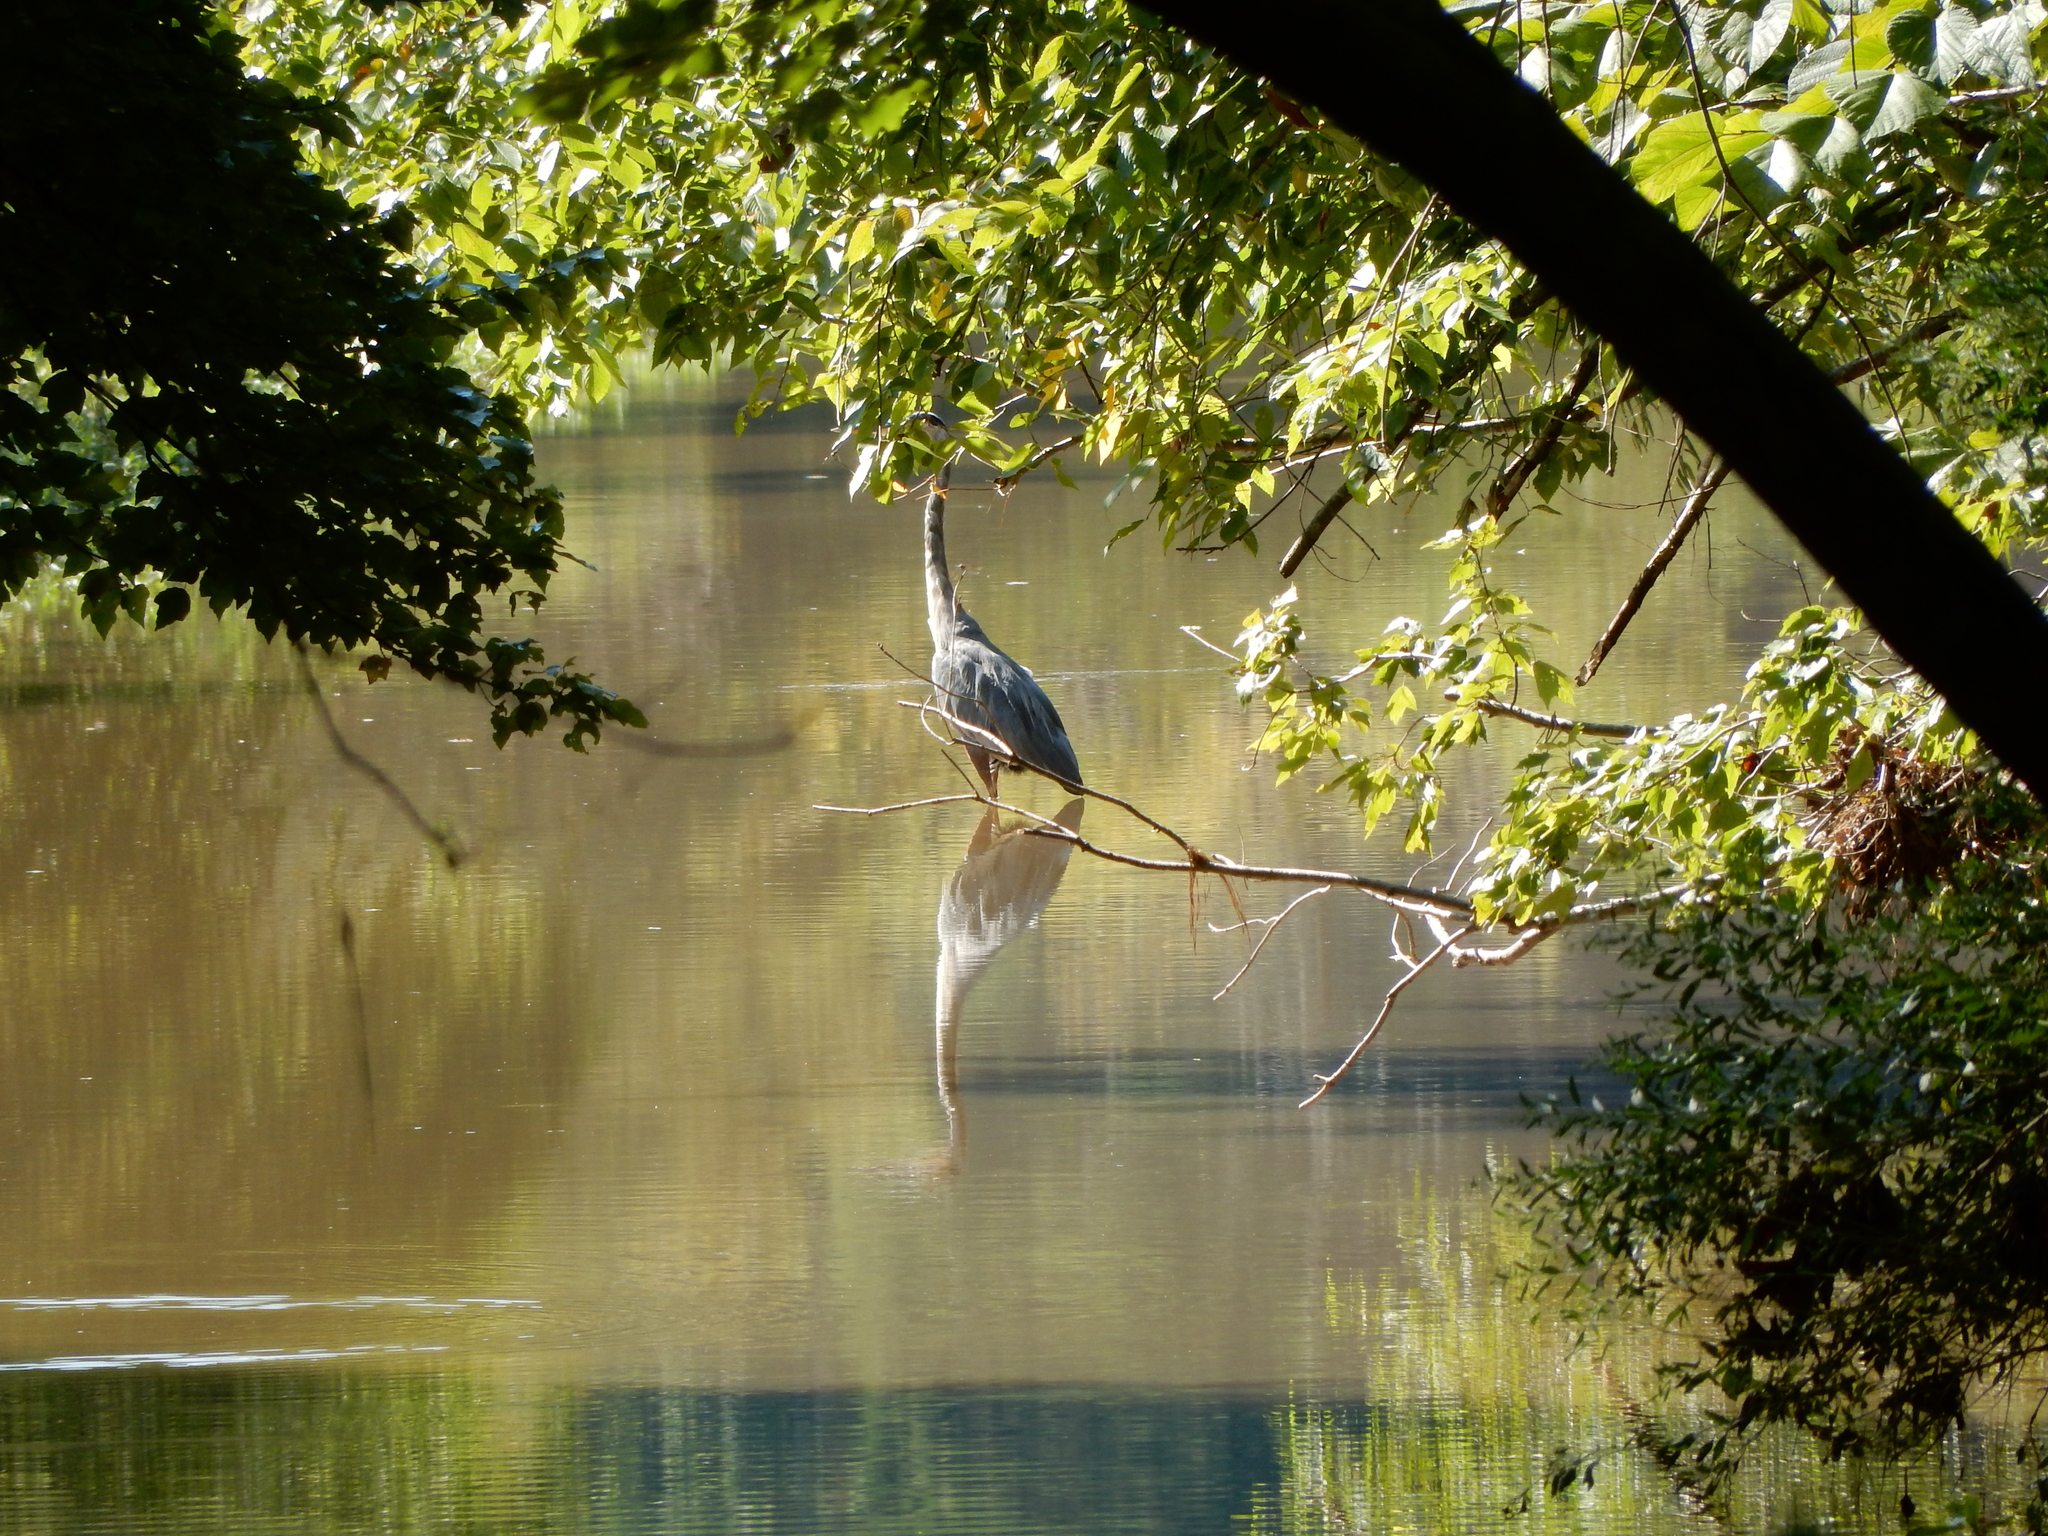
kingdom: Animalia
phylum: Chordata
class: Aves
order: Pelecaniformes
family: Ardeidae
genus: Ardea
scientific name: Ardea herodias
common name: Great blue heron
